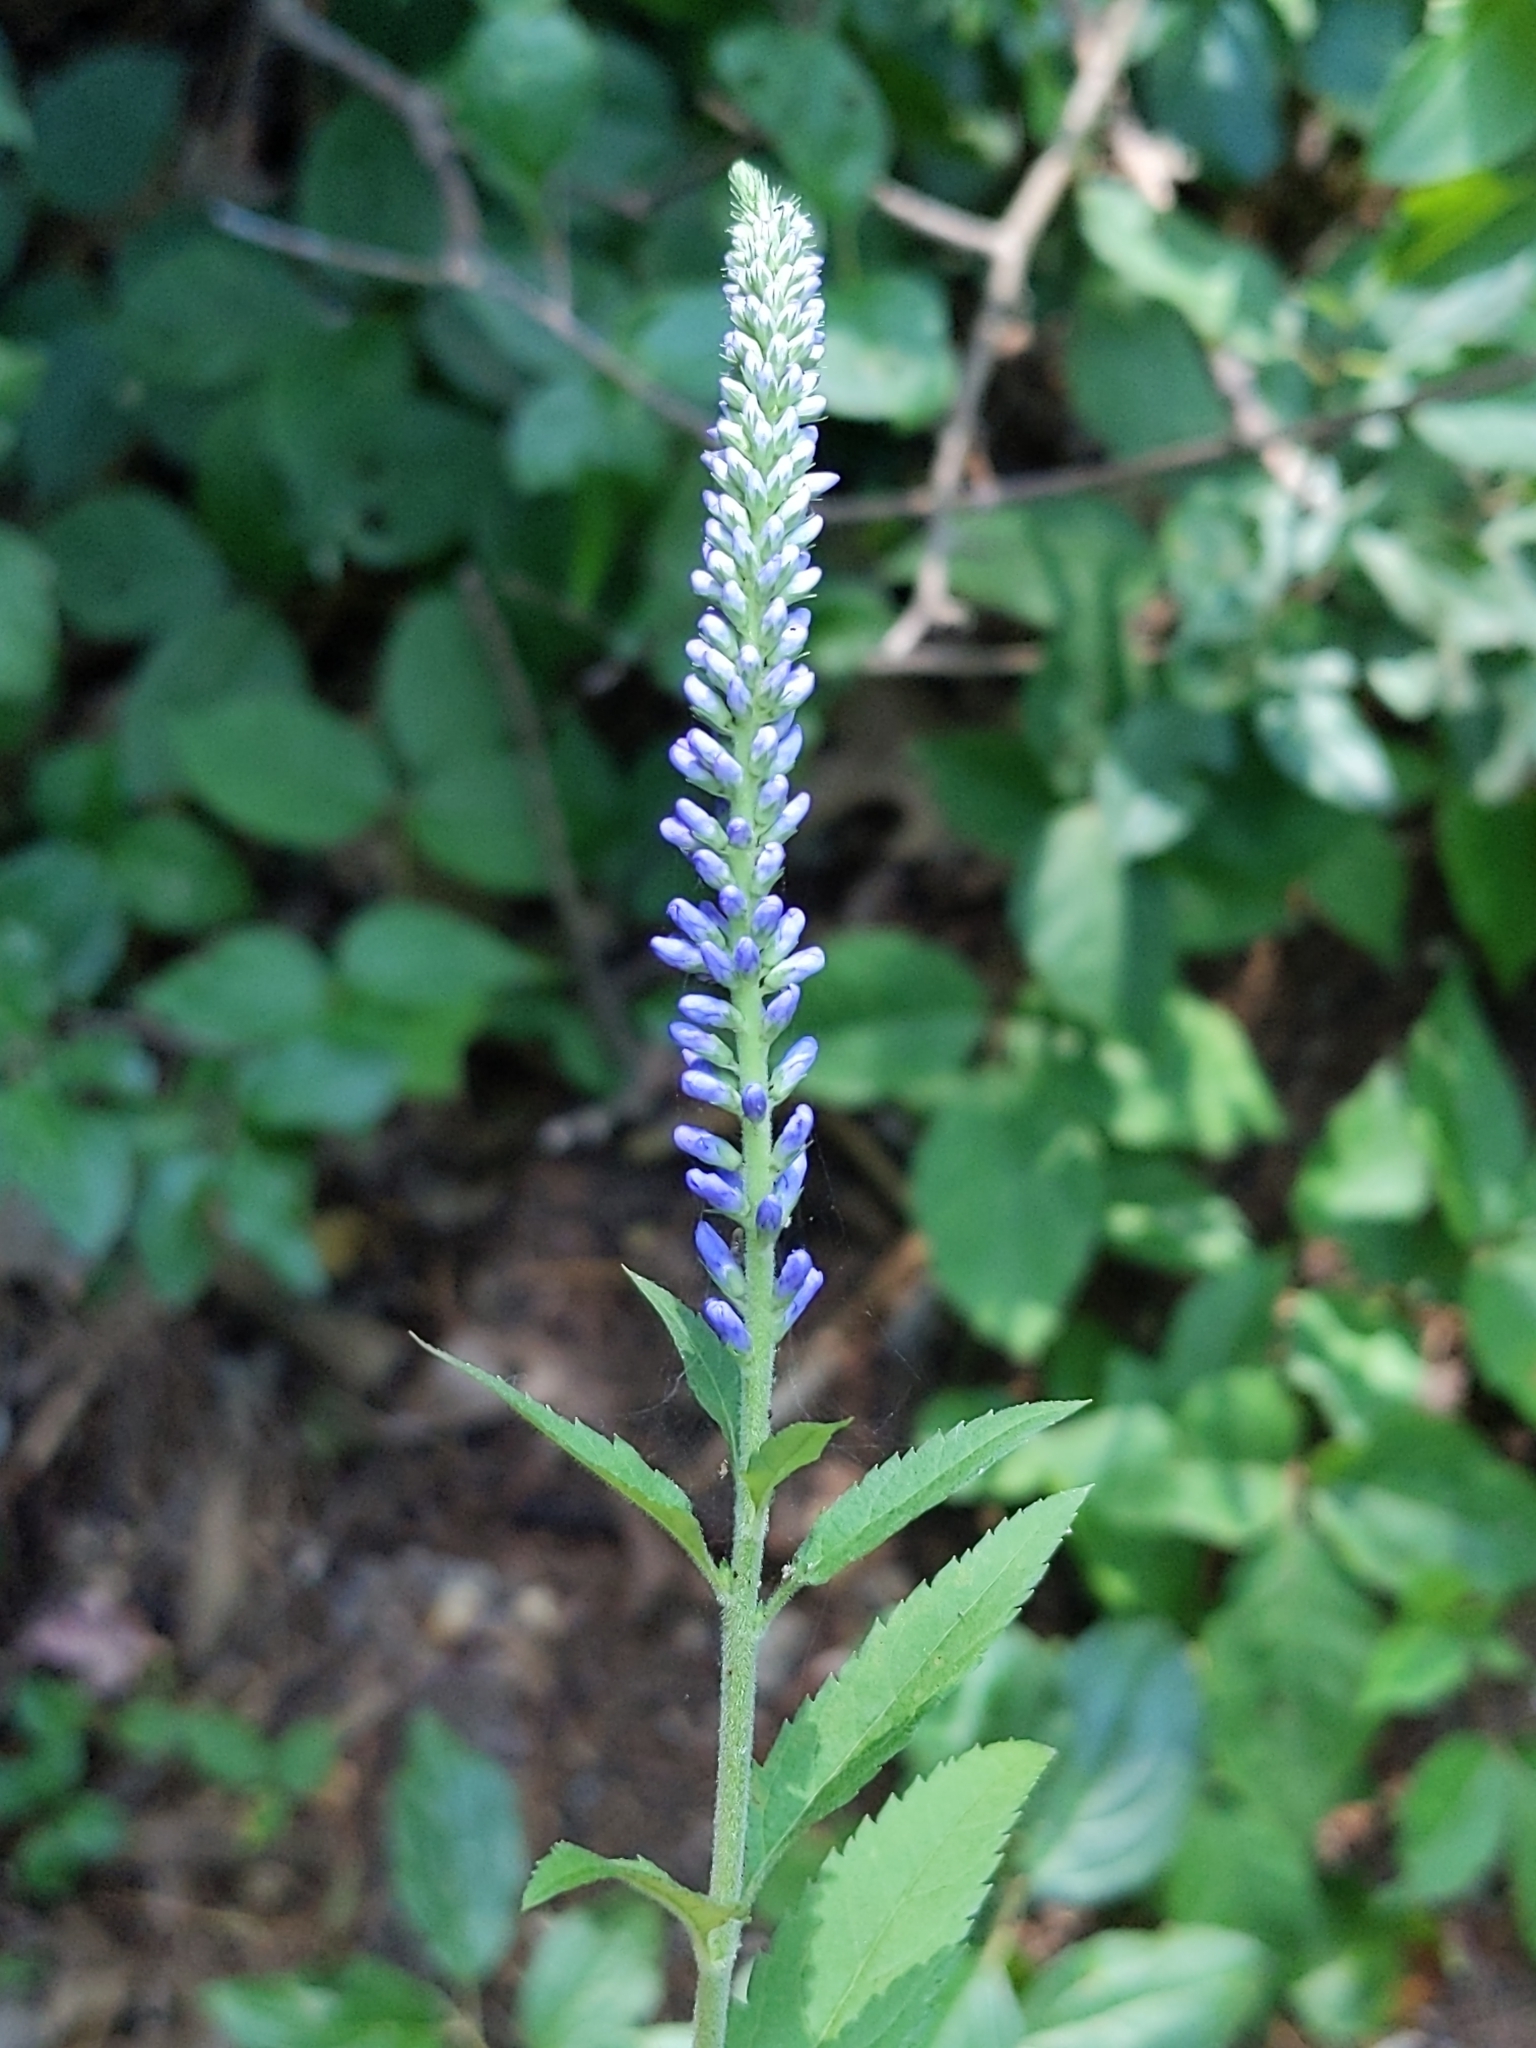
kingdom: Plantae
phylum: Tracheophyta
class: Magnoliopsida
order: Lamiales
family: Plantaginaceae
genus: Veronica
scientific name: Veronica longifolia
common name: Garden speedwell
